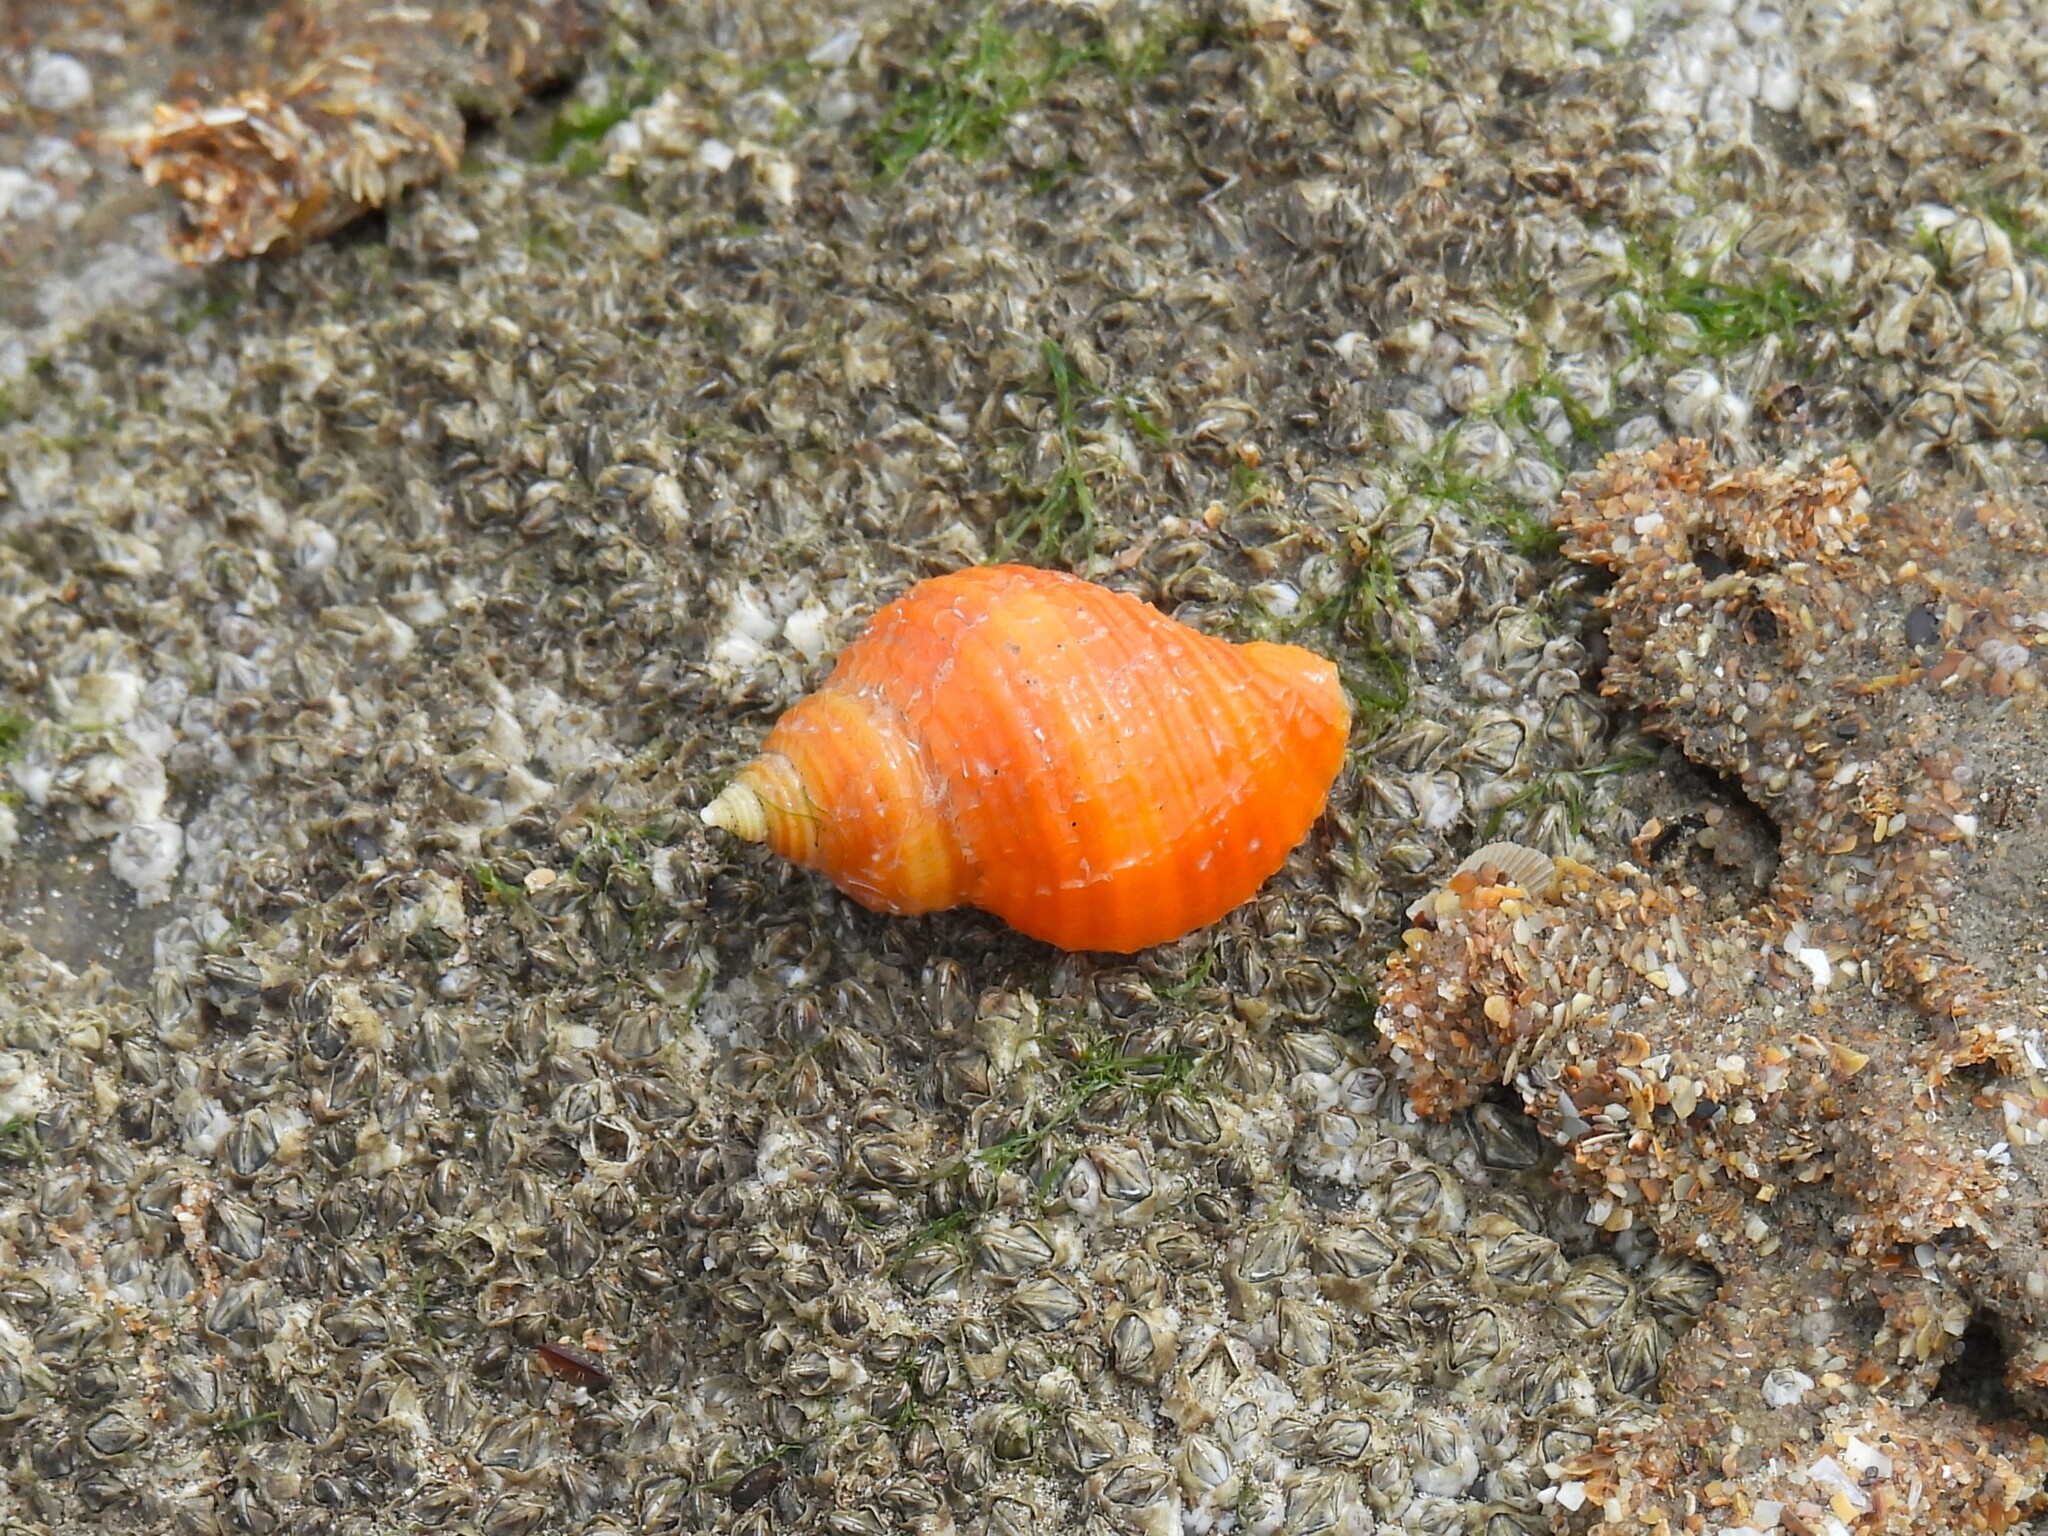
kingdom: Animalia
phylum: Mollusca
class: Gastropoda
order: Neogastropoda
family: Muricidae
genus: Nucella
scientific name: Nucella lapillus
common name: Dog whelk
